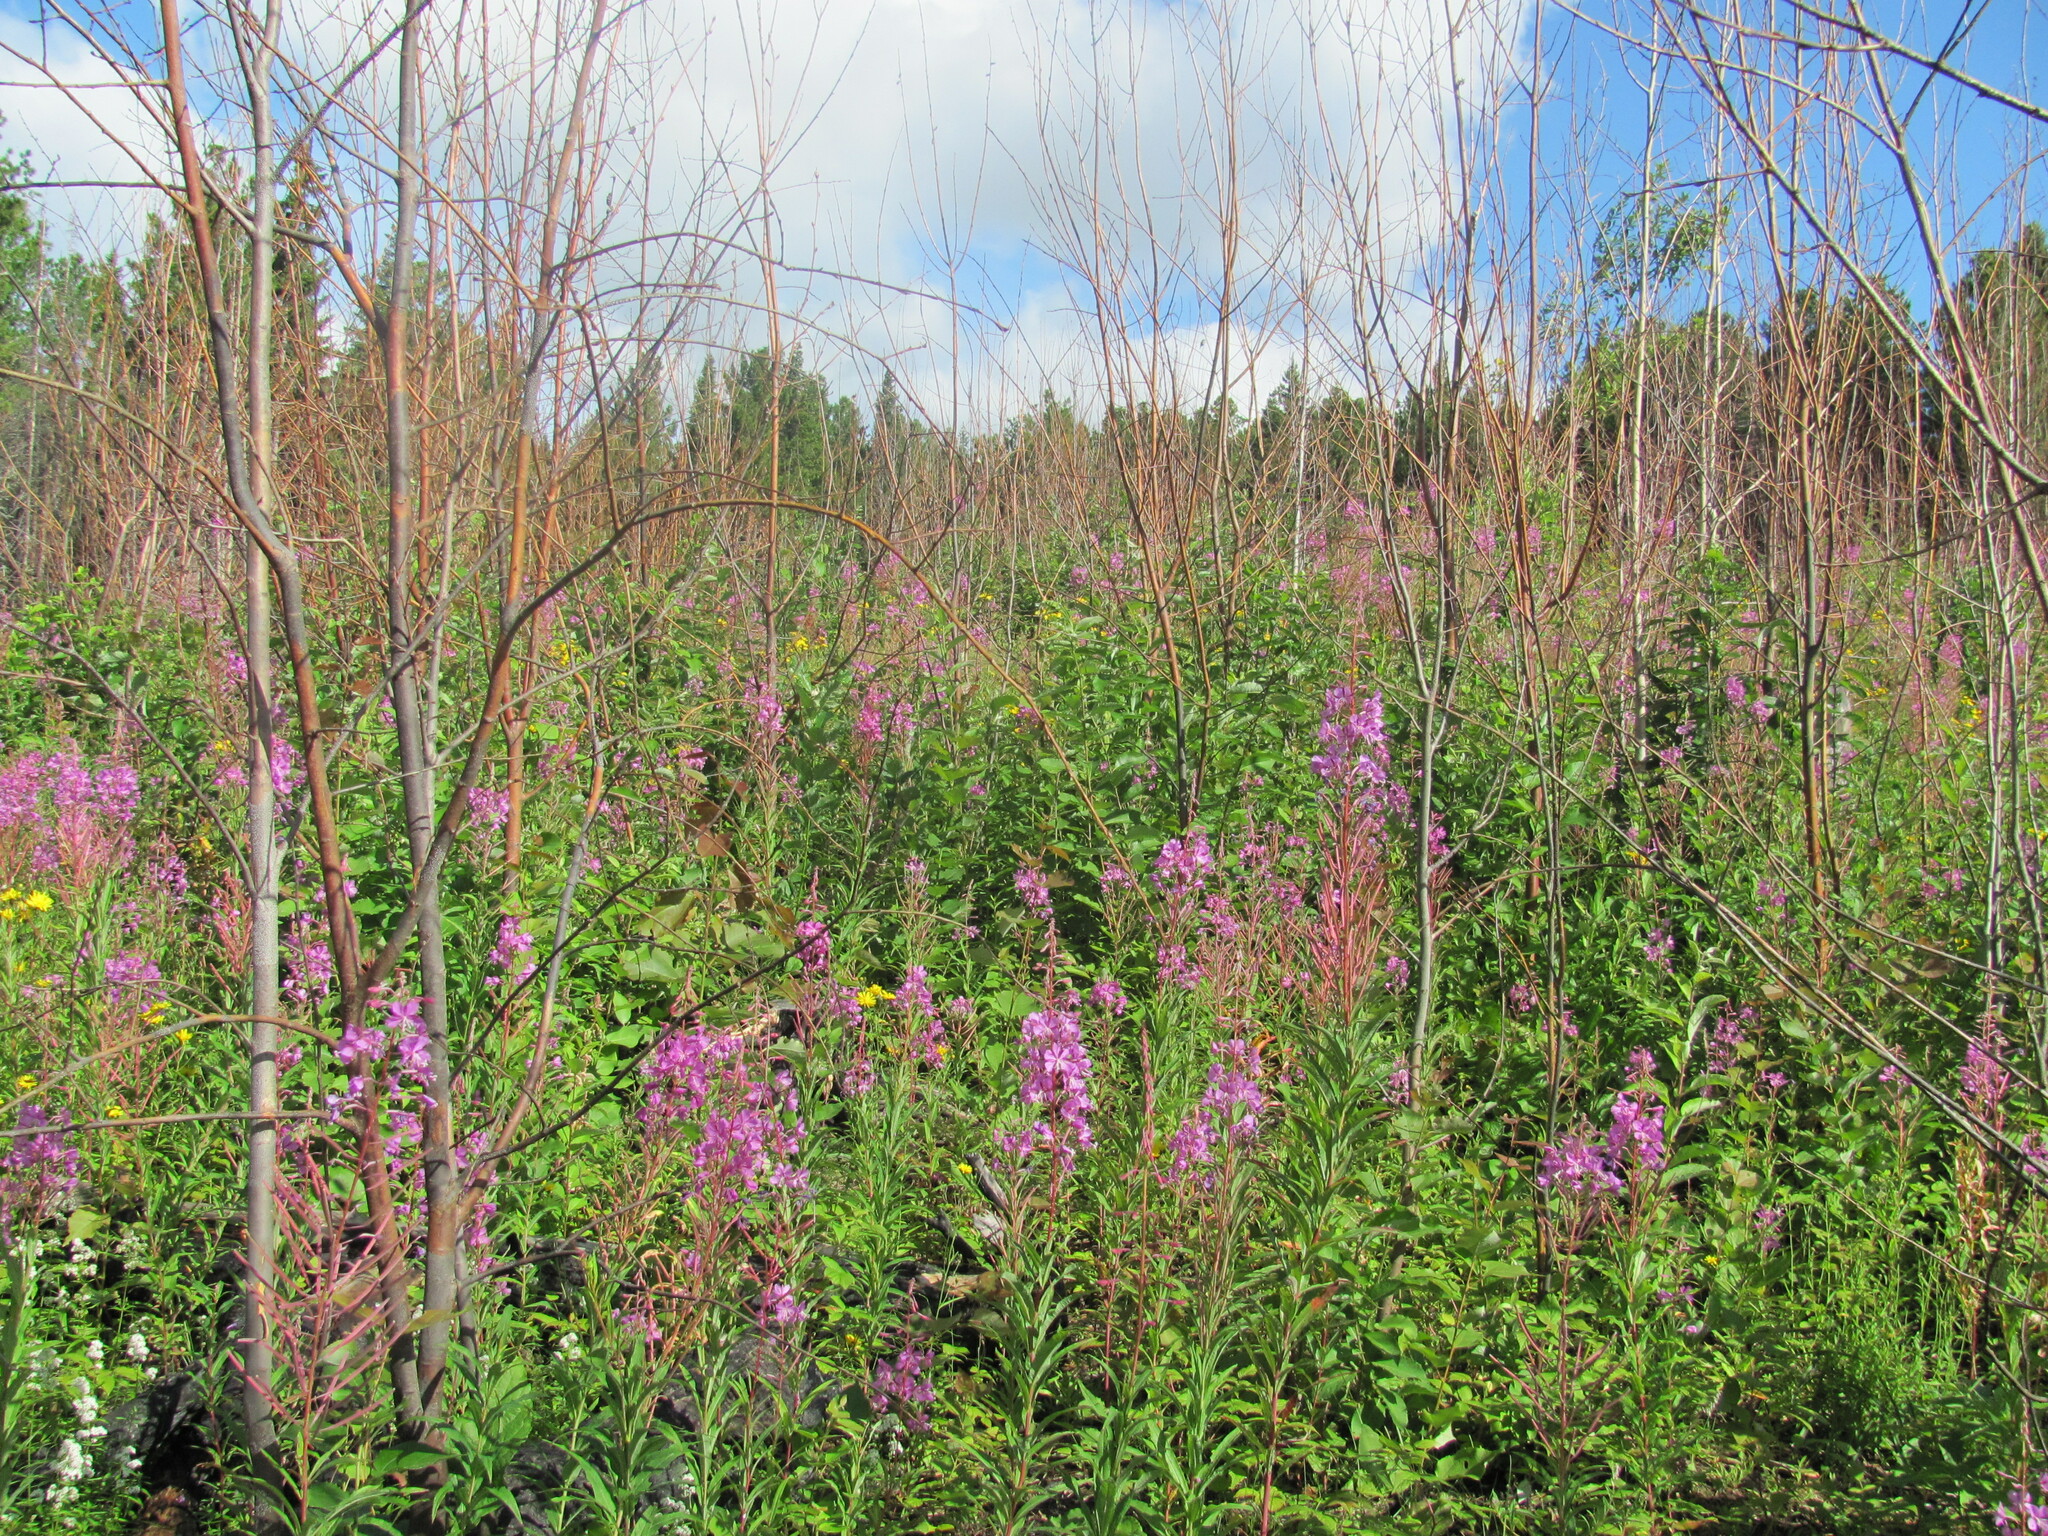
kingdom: Plantae
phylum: Tracheophyta
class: Magnoliopsida
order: Myrtales
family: Onagraceae
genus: Chamaenerion
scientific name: Chamaenerion angustifolium
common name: Fireweed
